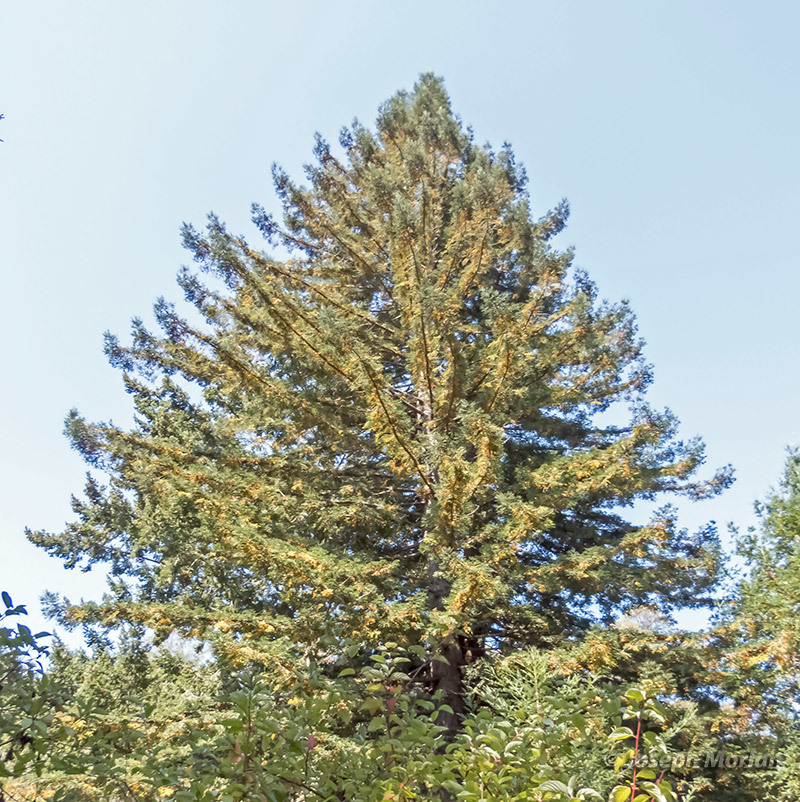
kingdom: Plantae
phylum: Tracheophyta
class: Pinopsida
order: Pinales
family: Cupressaceae
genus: Sequoia
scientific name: Sequoia sempervirens
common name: Coast redwood
